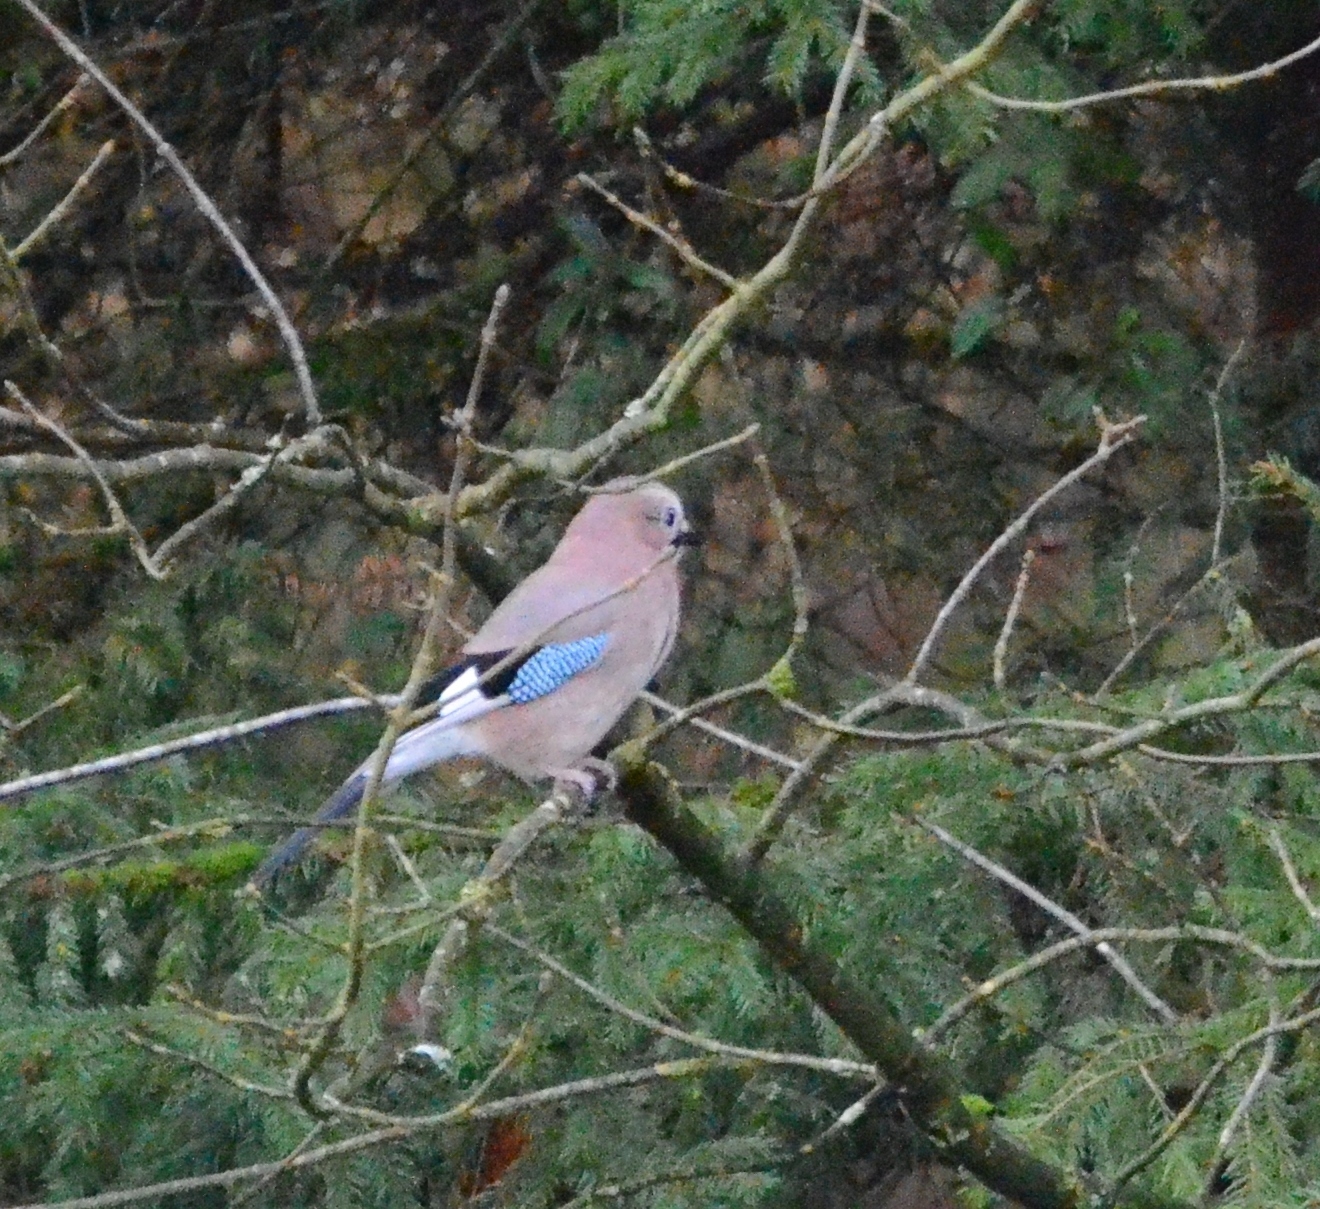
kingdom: Animalia
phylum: Chordata
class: Aves
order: Passeriformes
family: Corvidae
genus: Garrulus
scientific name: Garrulus glandarius
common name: Eurasian jay
